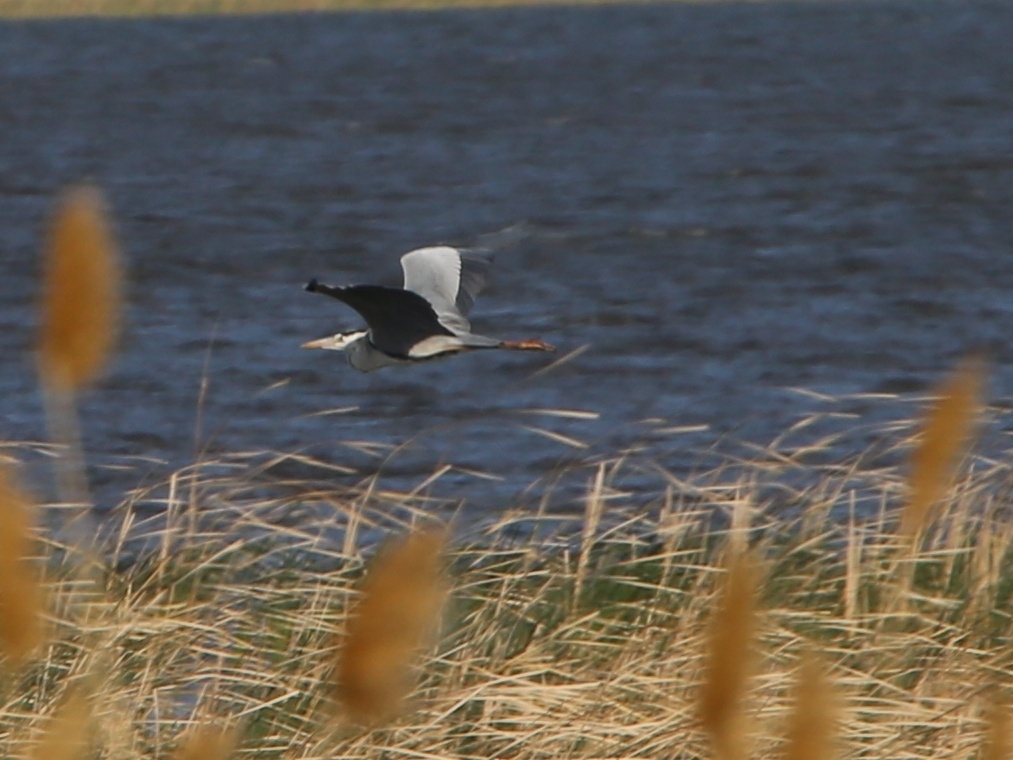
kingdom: Animalia
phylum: Chordata
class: Aves
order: Pelecaniformes
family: Ardeidae
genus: Ardea
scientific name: Ardea cinerea
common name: Grey heron
